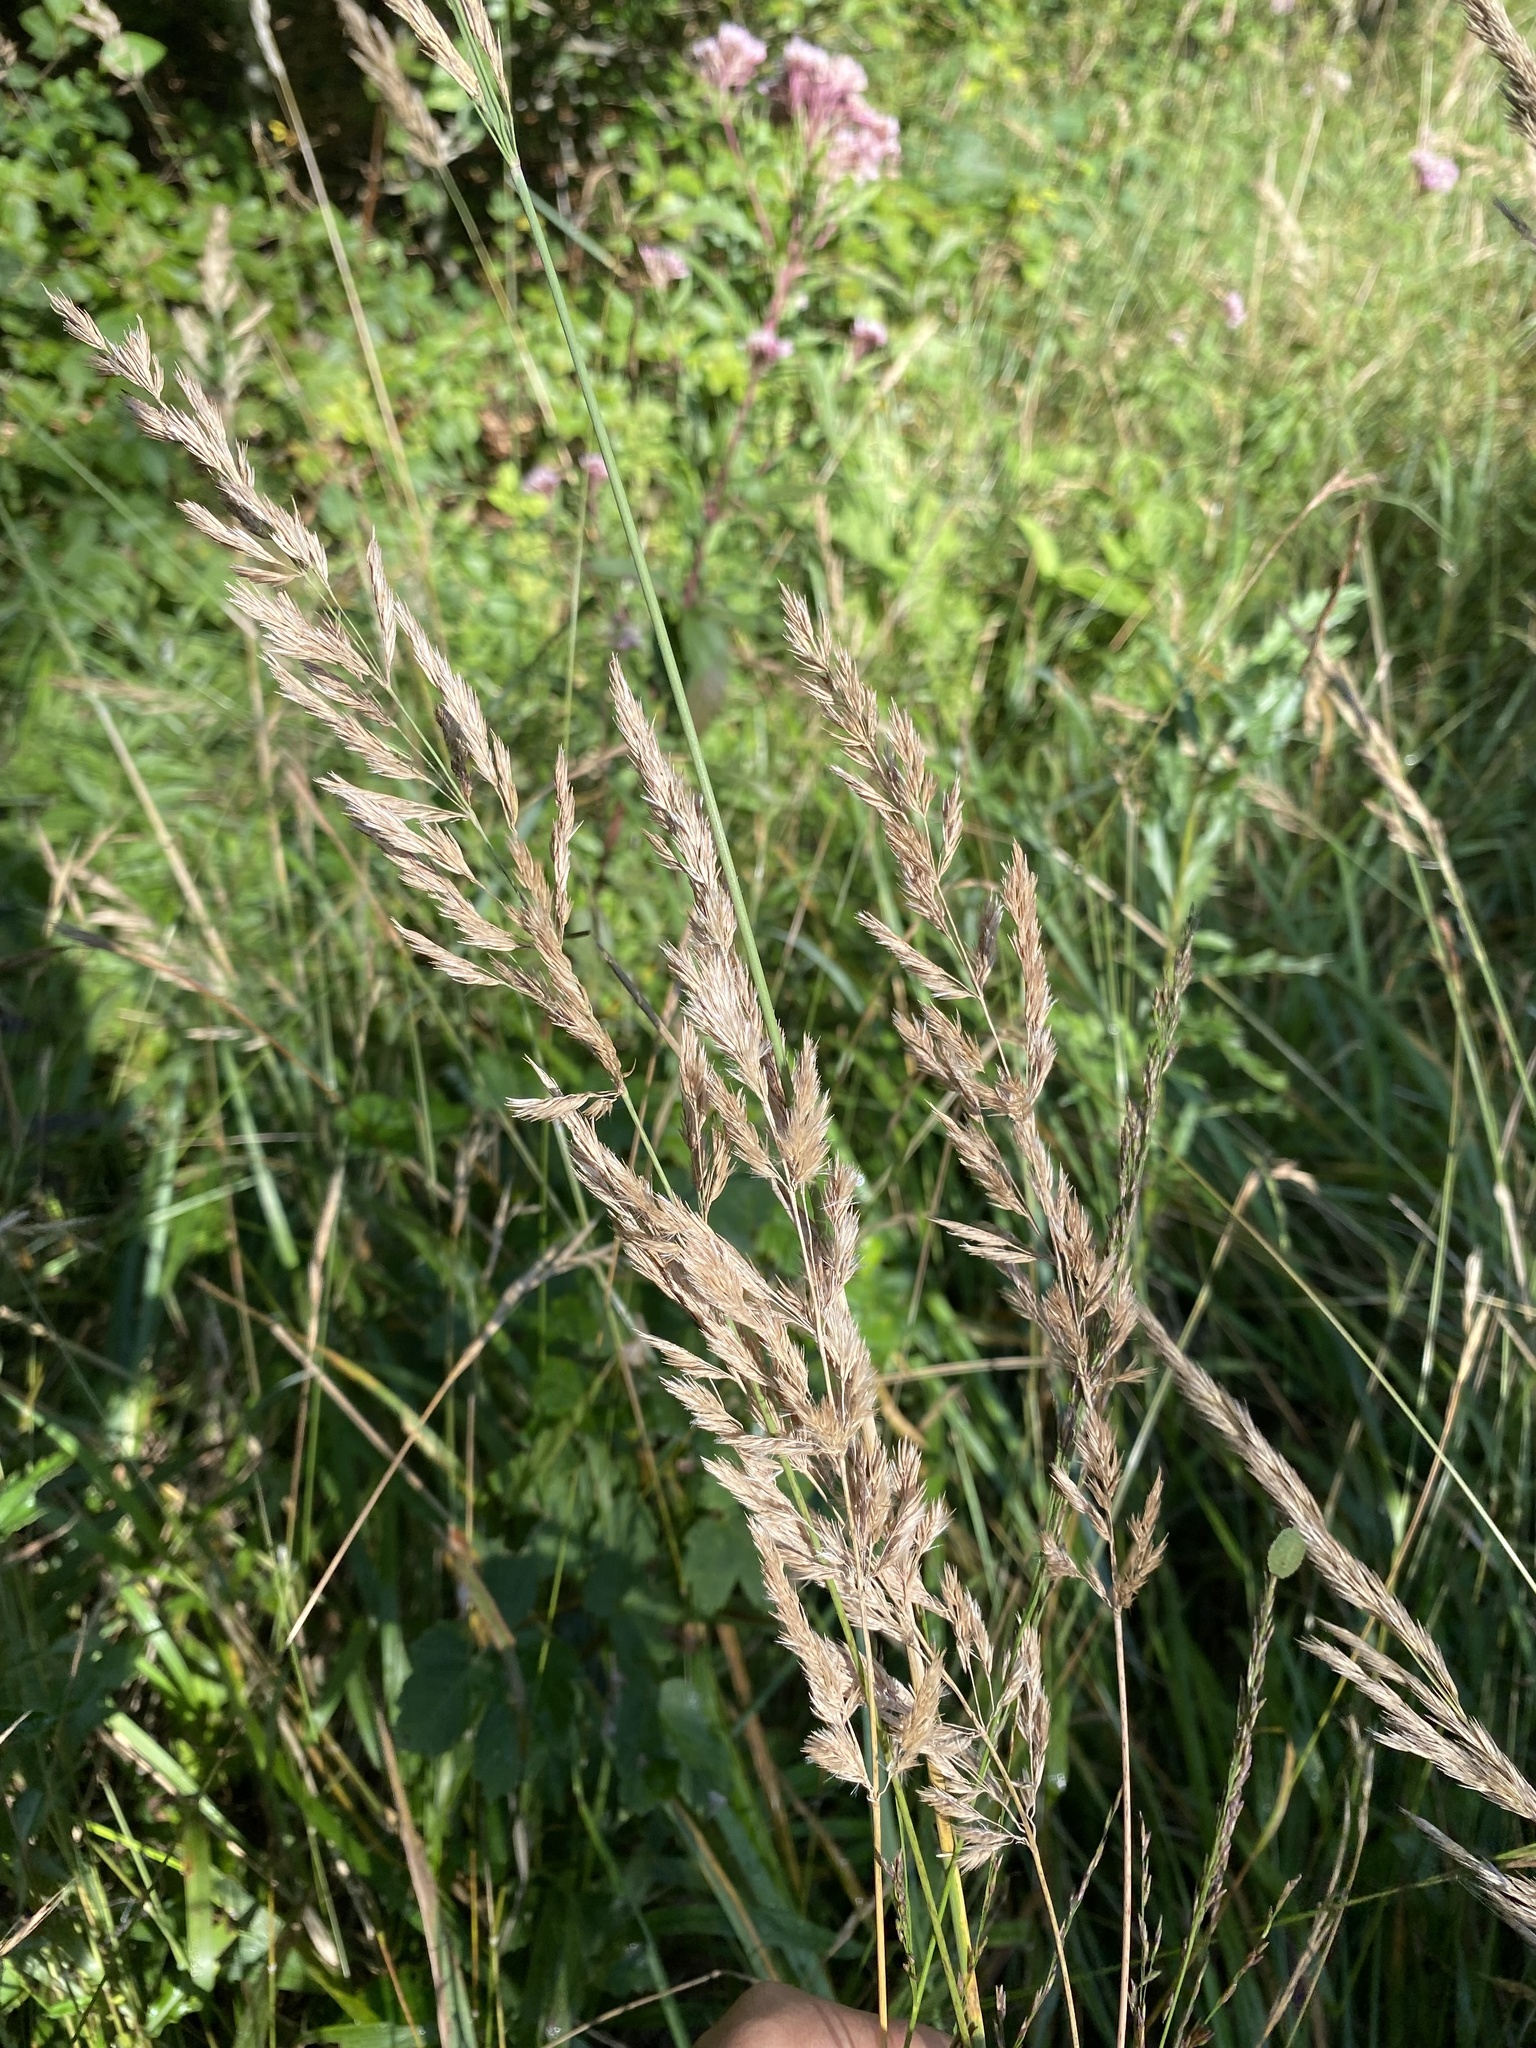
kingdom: Plantae
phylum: Tracheophyta
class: Liliopsida
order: Poales
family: Poaceae
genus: Calamagrostis
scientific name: Calamagrostis epigejos
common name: Wood small-reed
